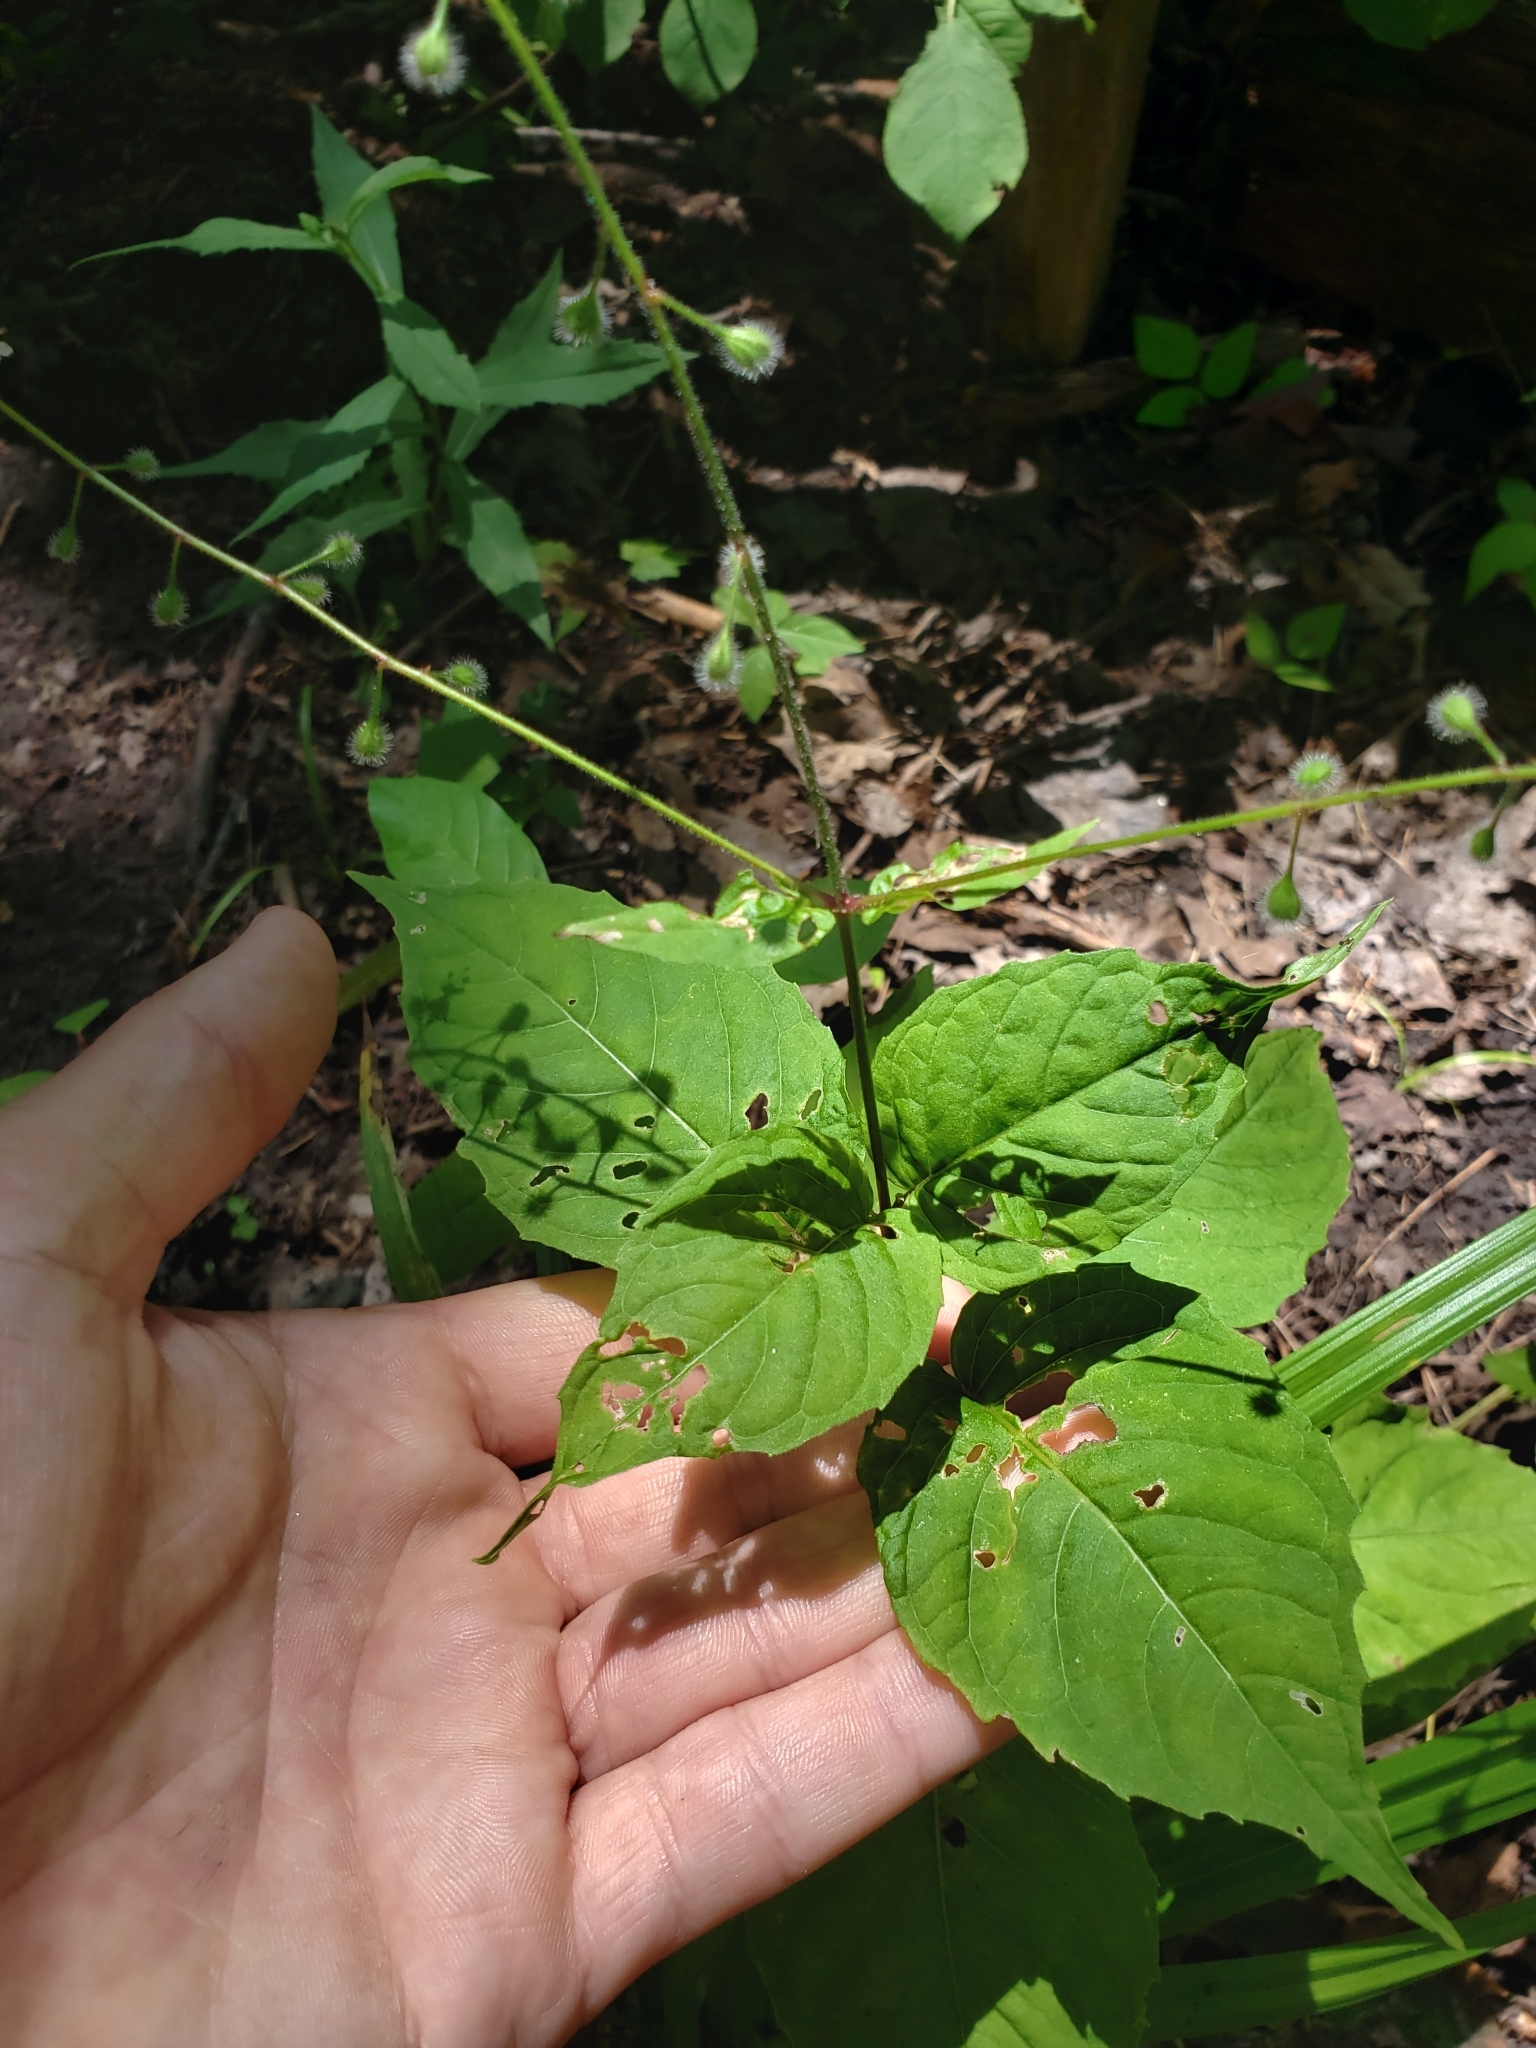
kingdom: Plantae
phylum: Tracheophyta
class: Magnoliopsida
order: Myrtales
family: Onagraceae
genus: Circaea
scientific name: Circaea canadensis
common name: Broad-leaved enchanter's nightshade
